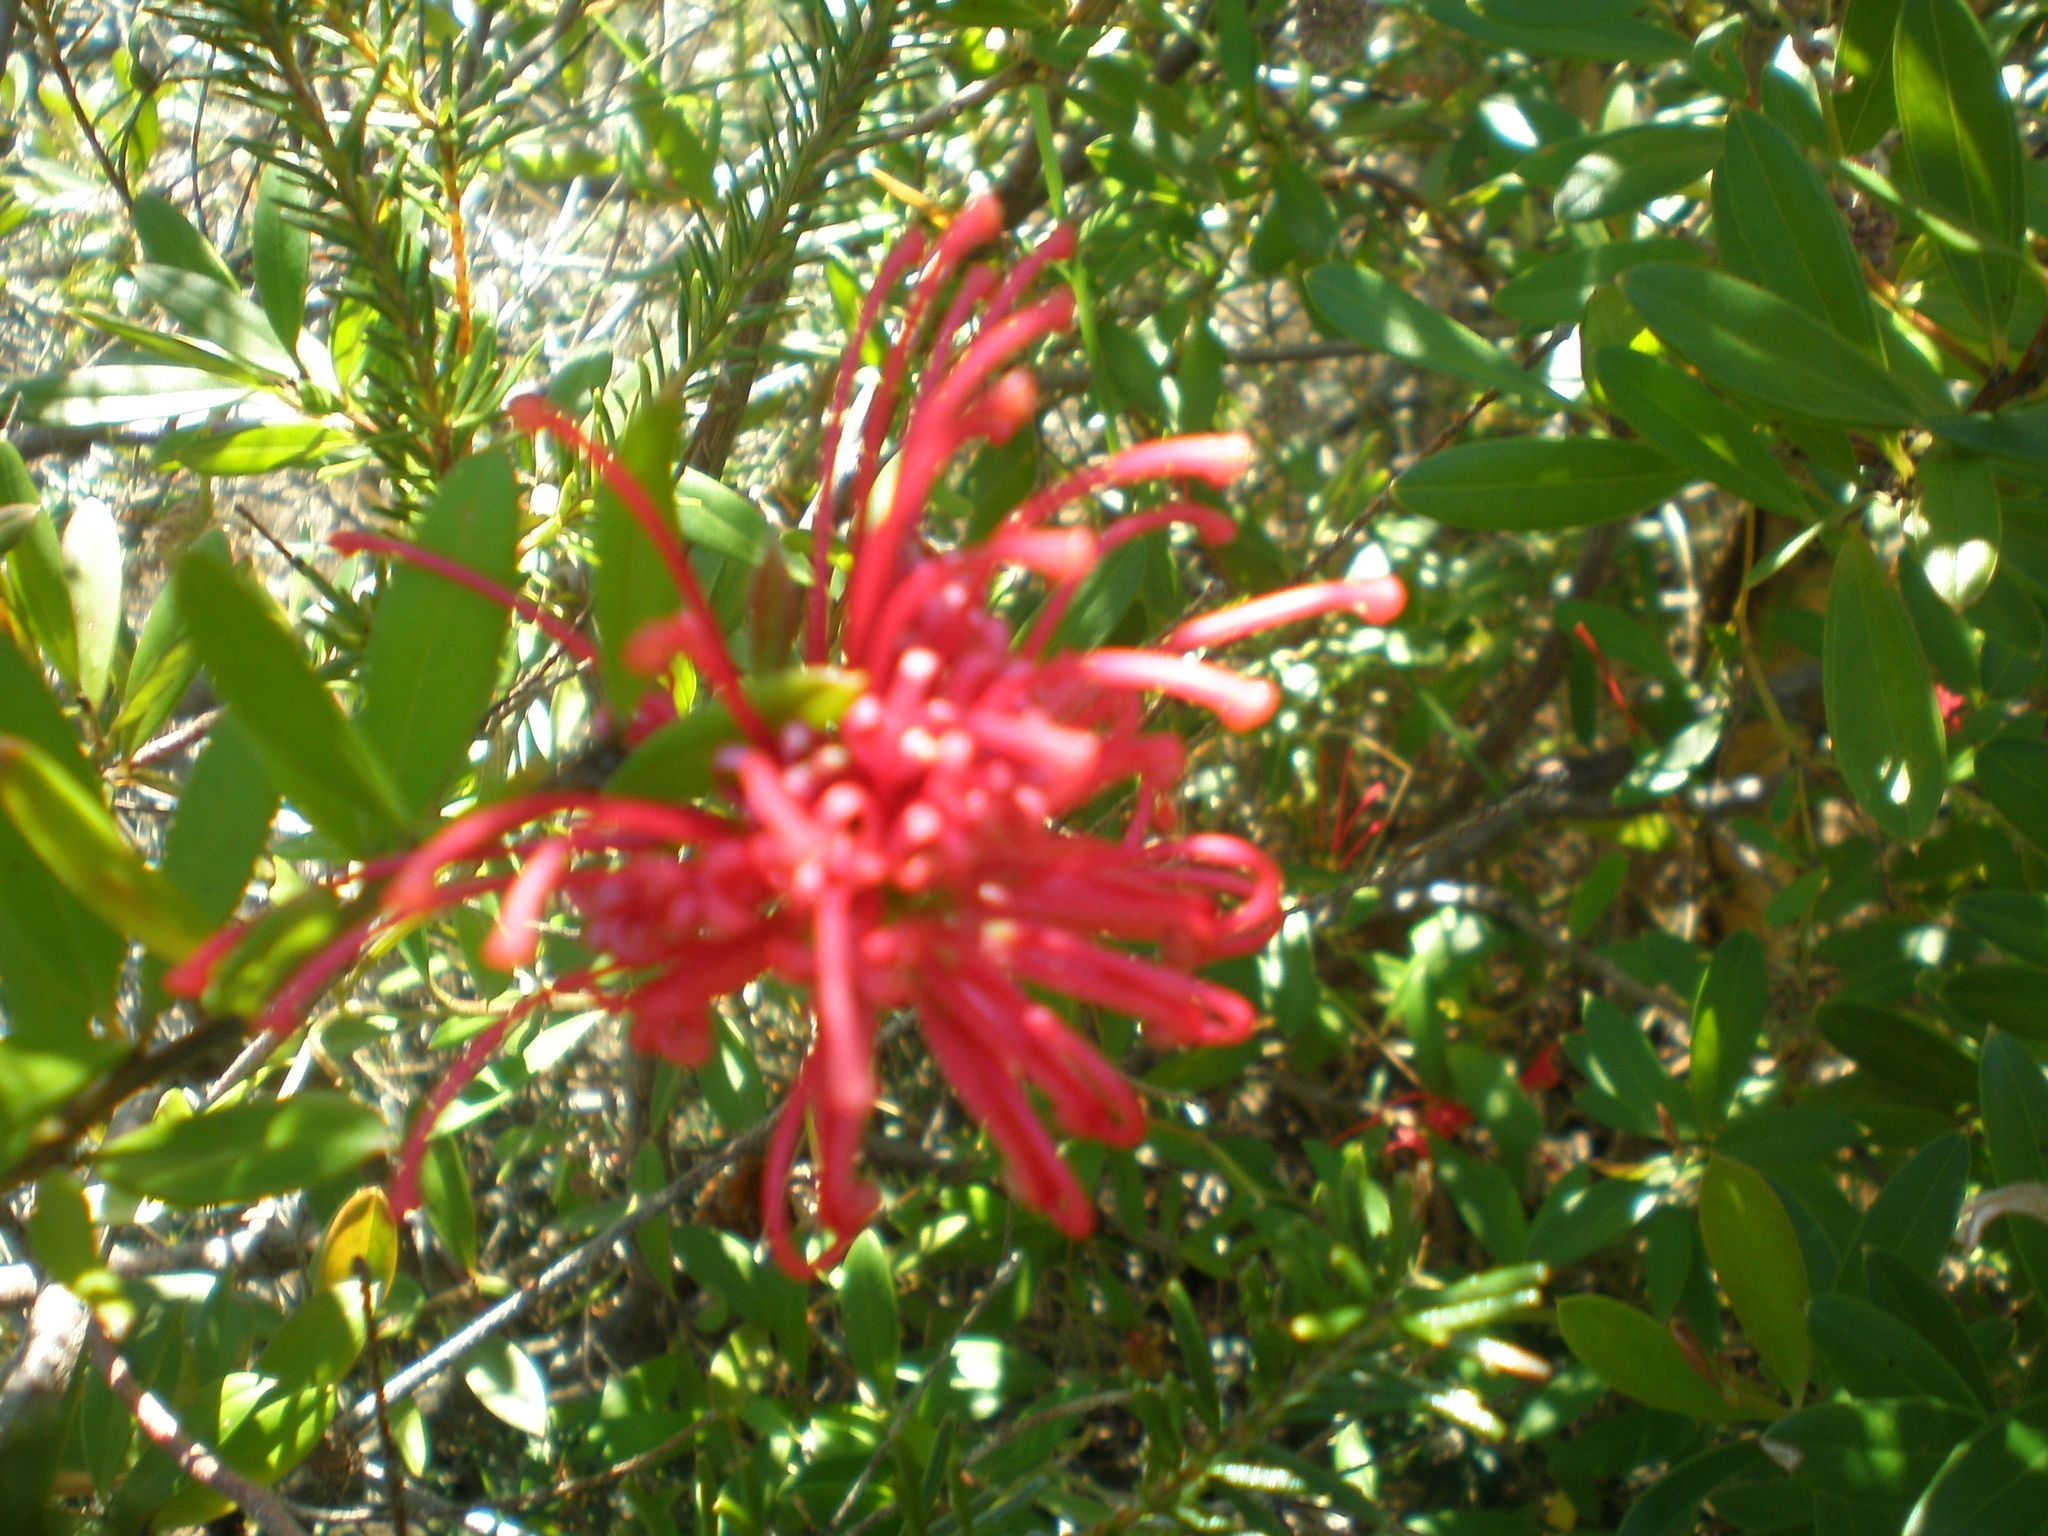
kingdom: Plantae
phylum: Tracheophyta
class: Magnoliopsida
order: Proteales
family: Proteaceae
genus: Grevillea
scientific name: Grevillea speciosa
